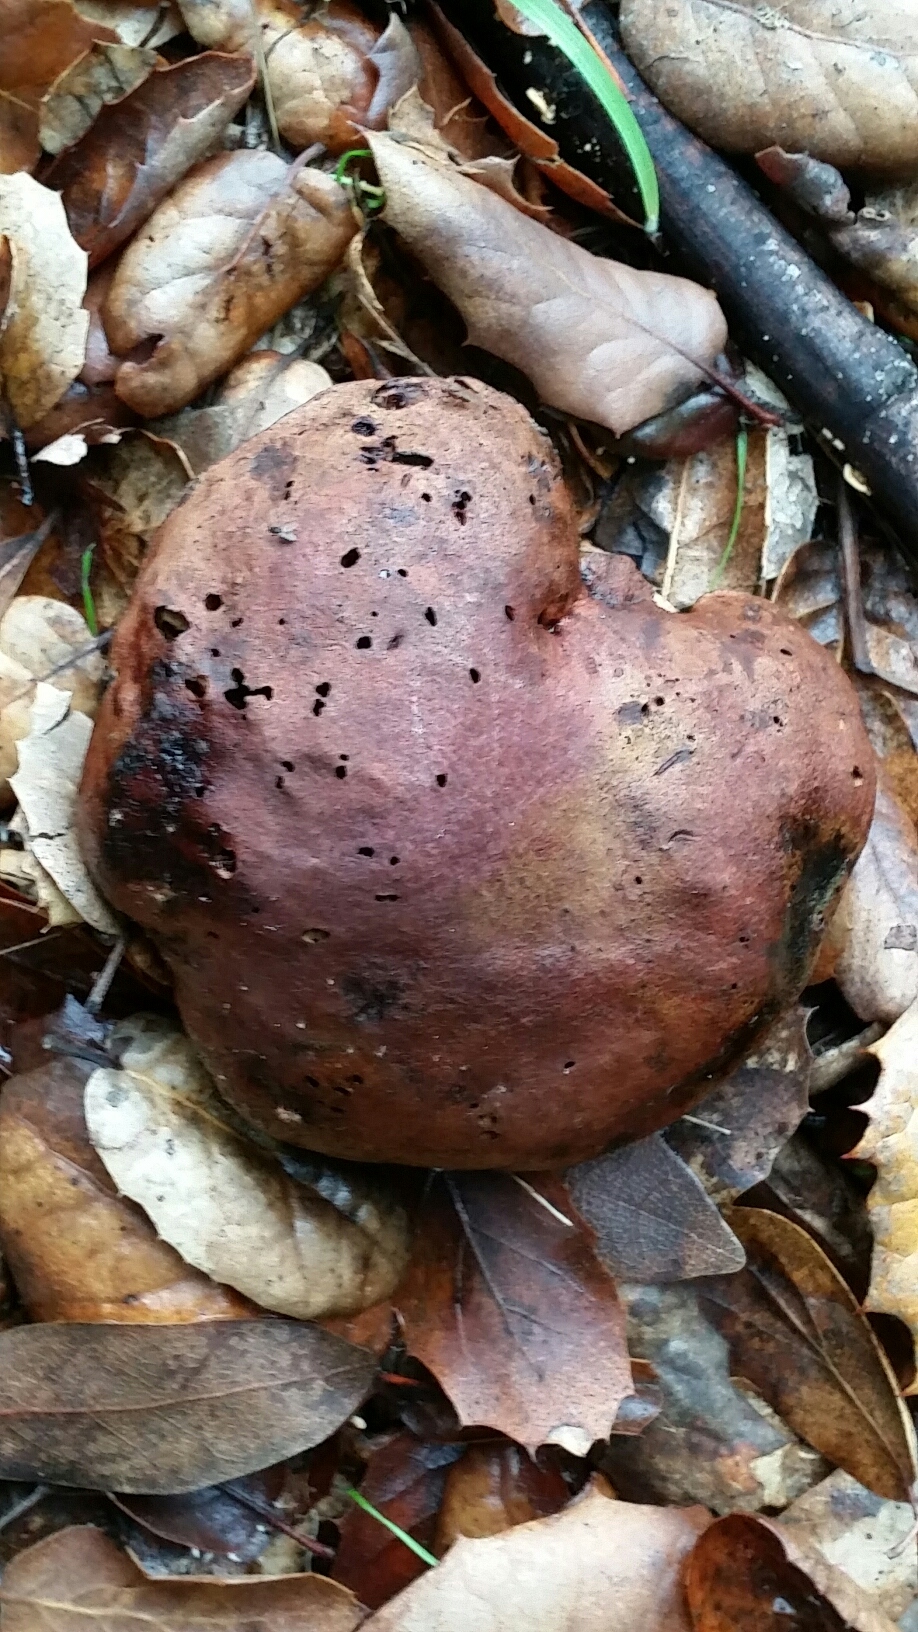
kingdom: Fungi
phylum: Basidiomycota
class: Agaricomycetes
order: Boletales
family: Boletaceae
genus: Suillellus
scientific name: Suillellus amygdalinus
